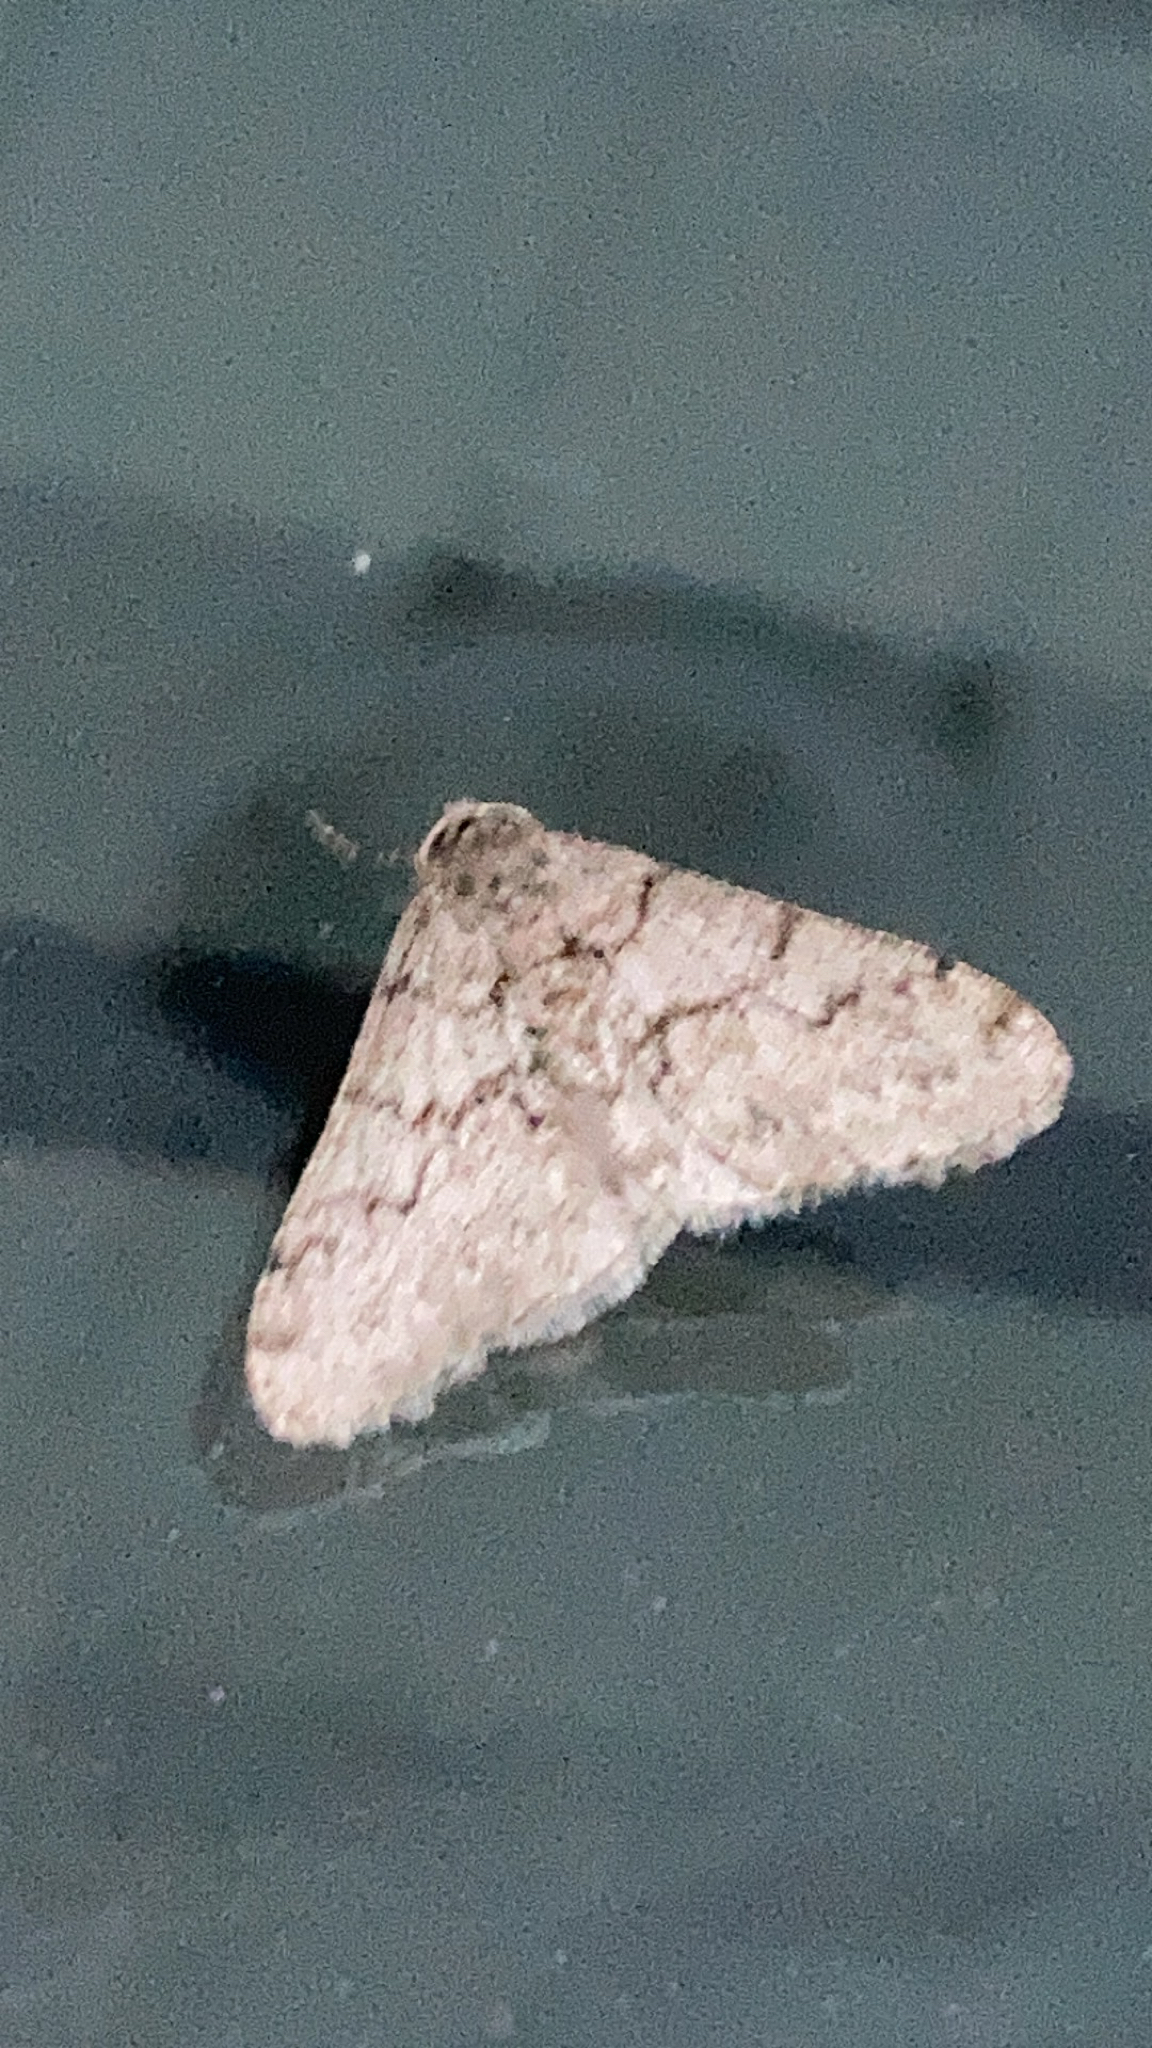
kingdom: Animalia
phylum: Arthropoda
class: Insecta
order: Lepidoptera
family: Geometridae
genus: Phigalia
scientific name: Phigalia denticulata
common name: Toothed phigalia
